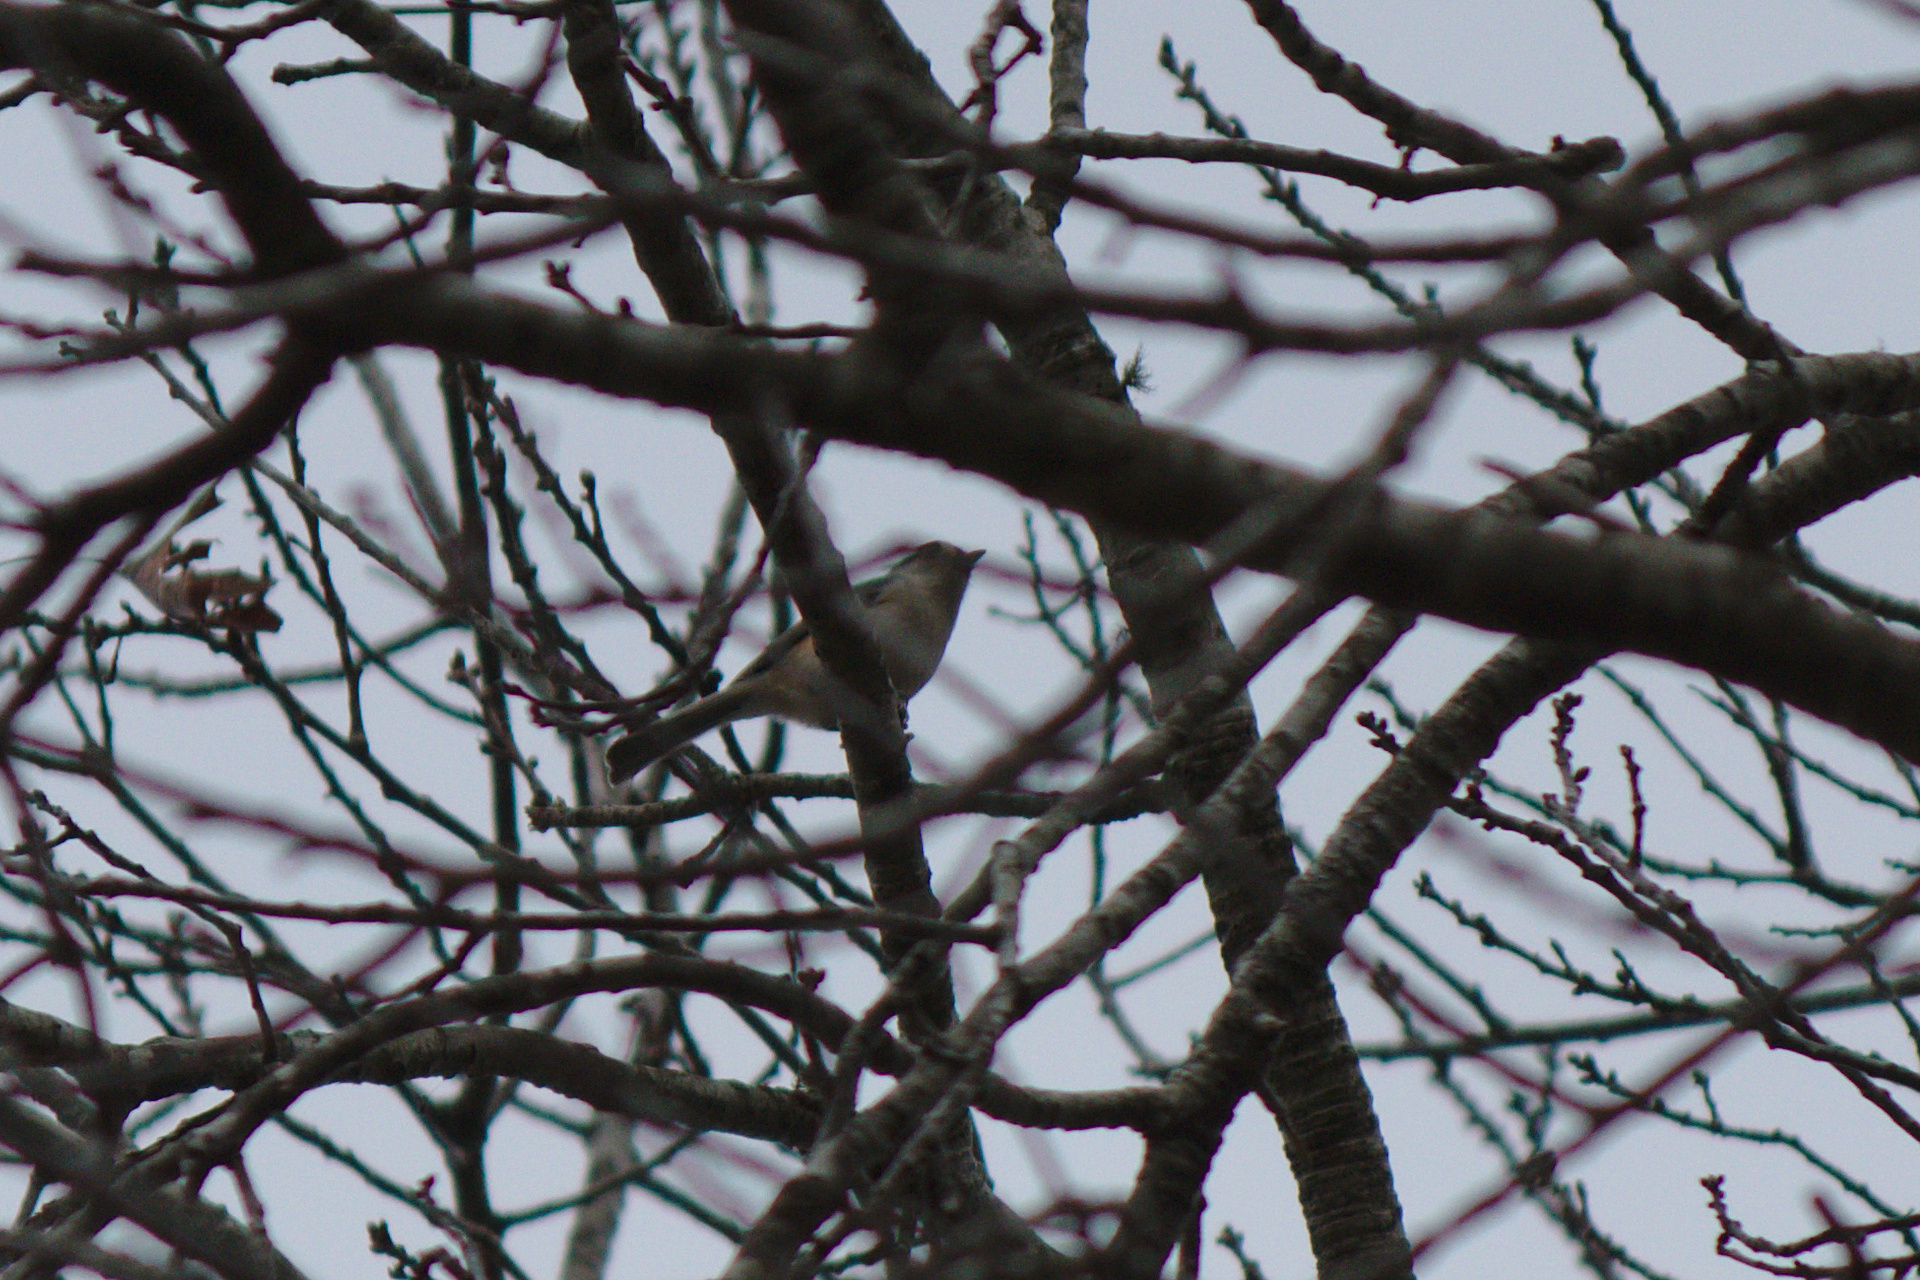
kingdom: Animalia
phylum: Chordata
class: Aves
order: Passeriformes
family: Paridae
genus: Baeolophus
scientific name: Baeolophus bicolor
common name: Tufted titmouse
